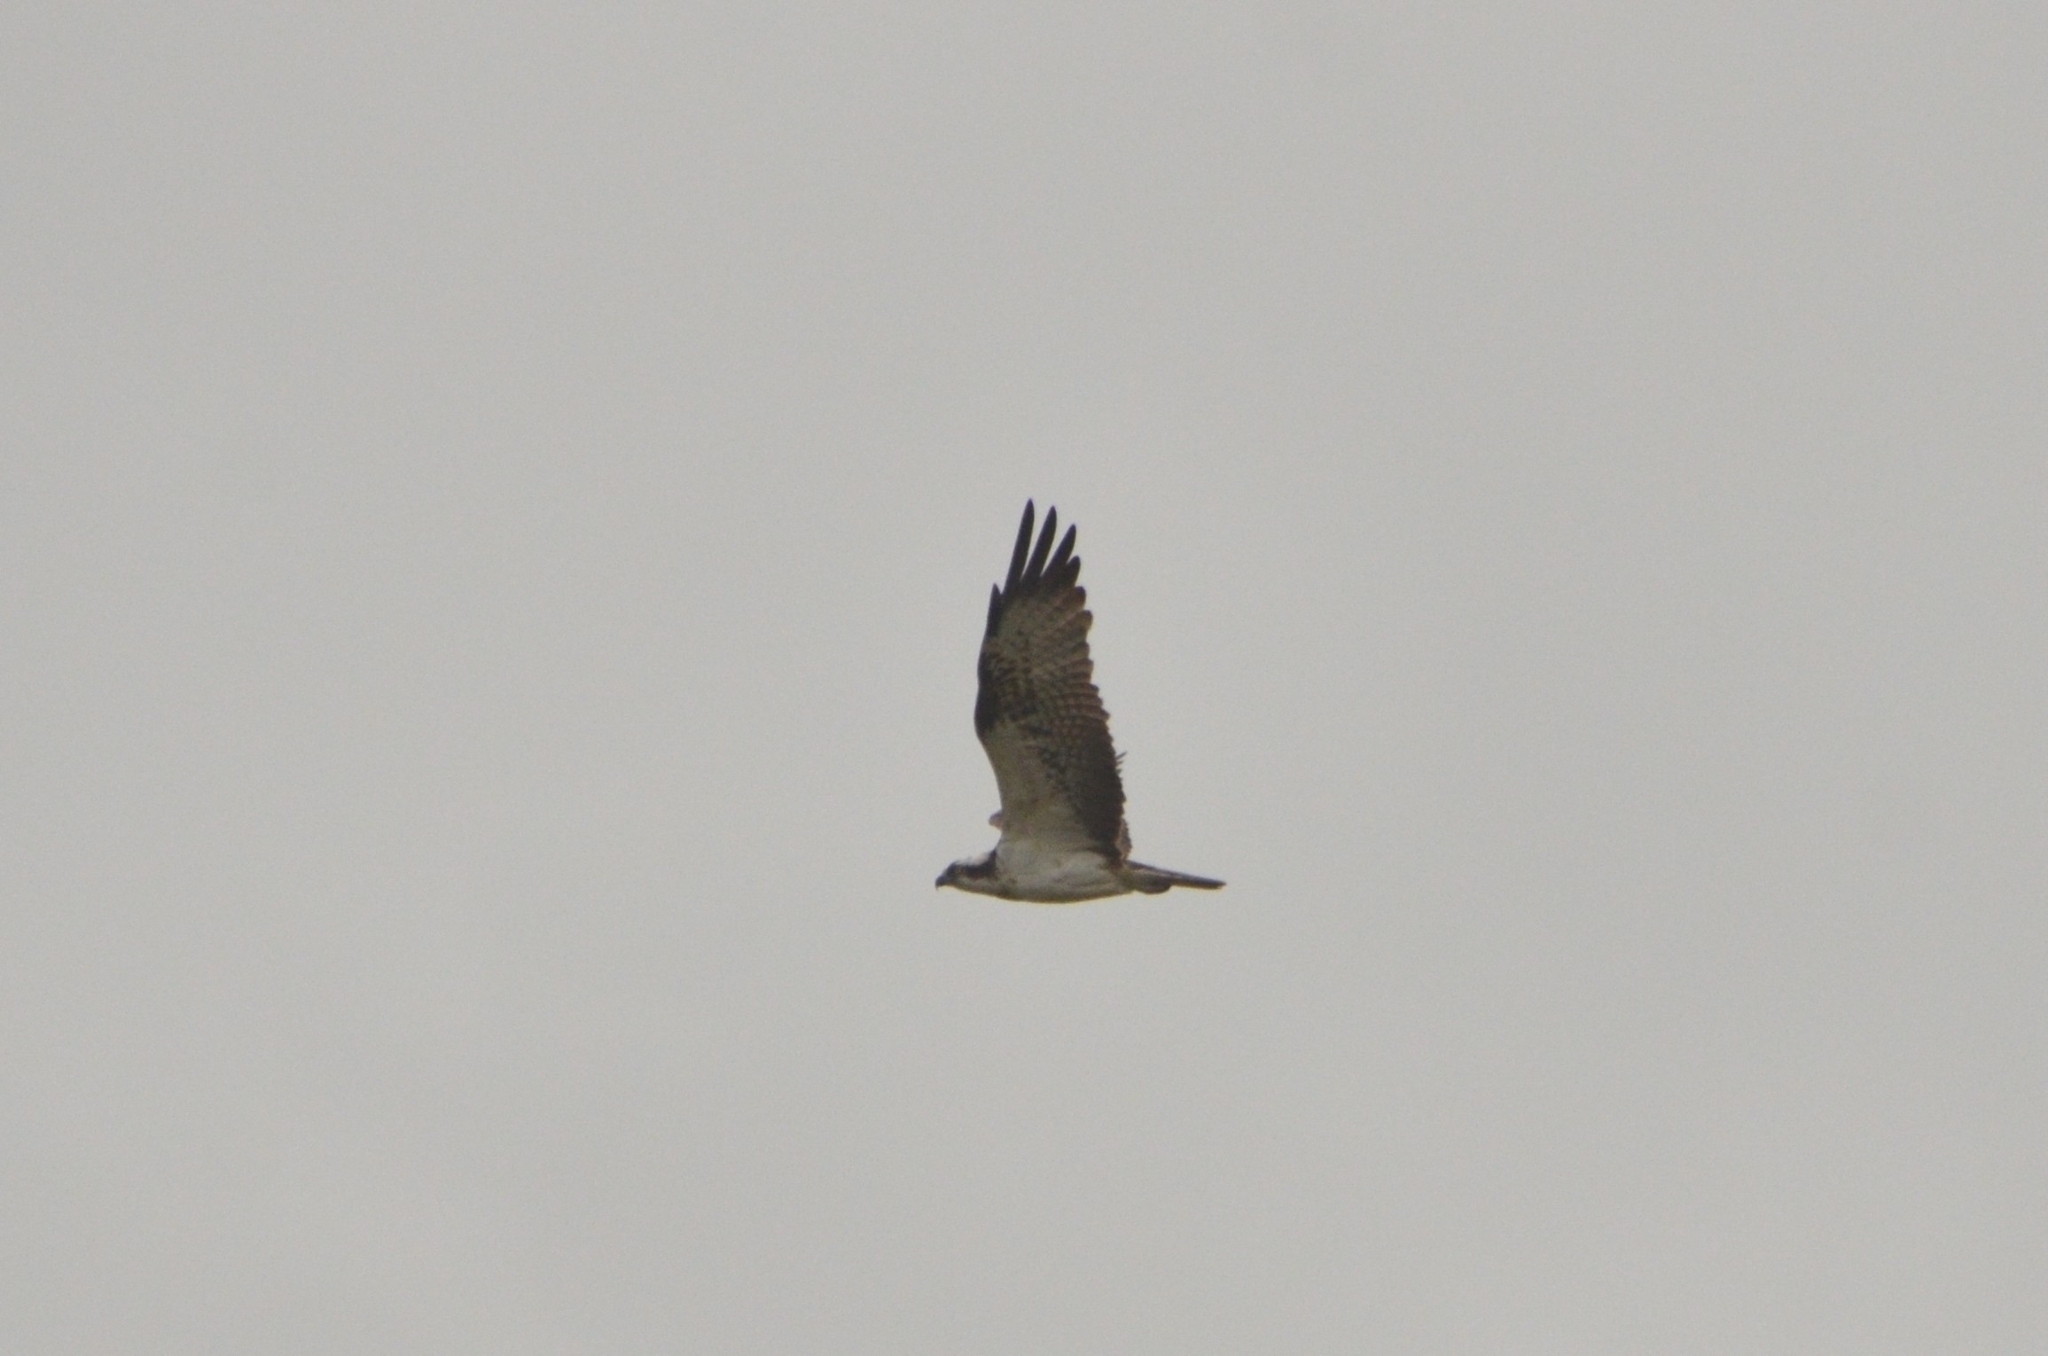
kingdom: Animalia
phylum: Chordata
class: Aves
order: Accipitriformes
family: Pandionidae
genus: Pandion
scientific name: Pandion haliaetus
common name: Osprey
